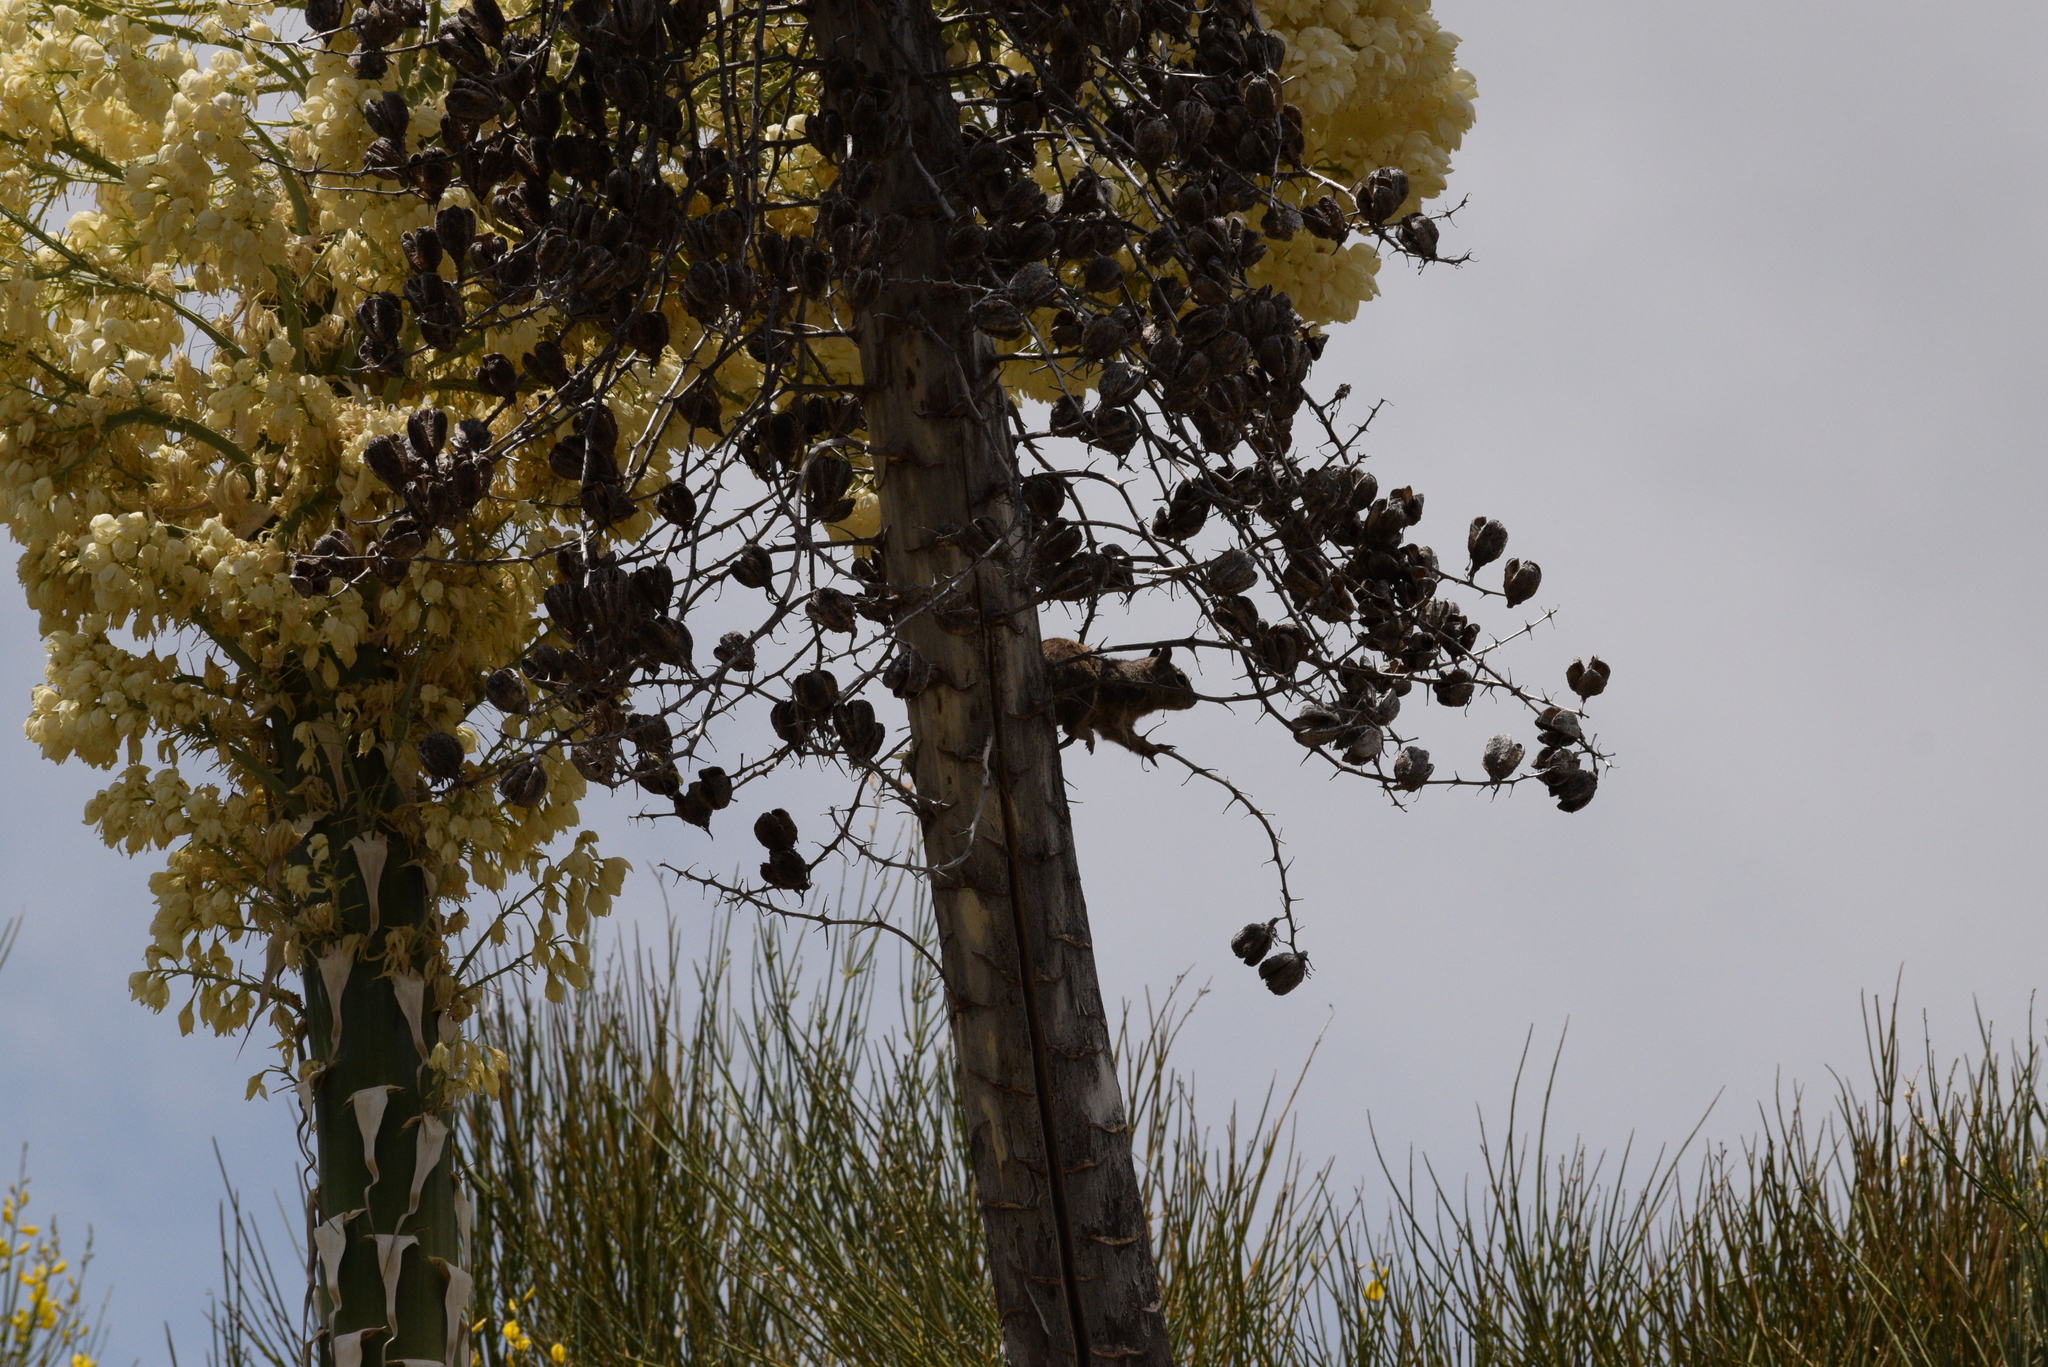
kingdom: Animalia
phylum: Chordata
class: Mammalia
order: Rodentia
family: Sciuridae
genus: Otospermophilus
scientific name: Otospermophilus beecheyi
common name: California ground squirrel
